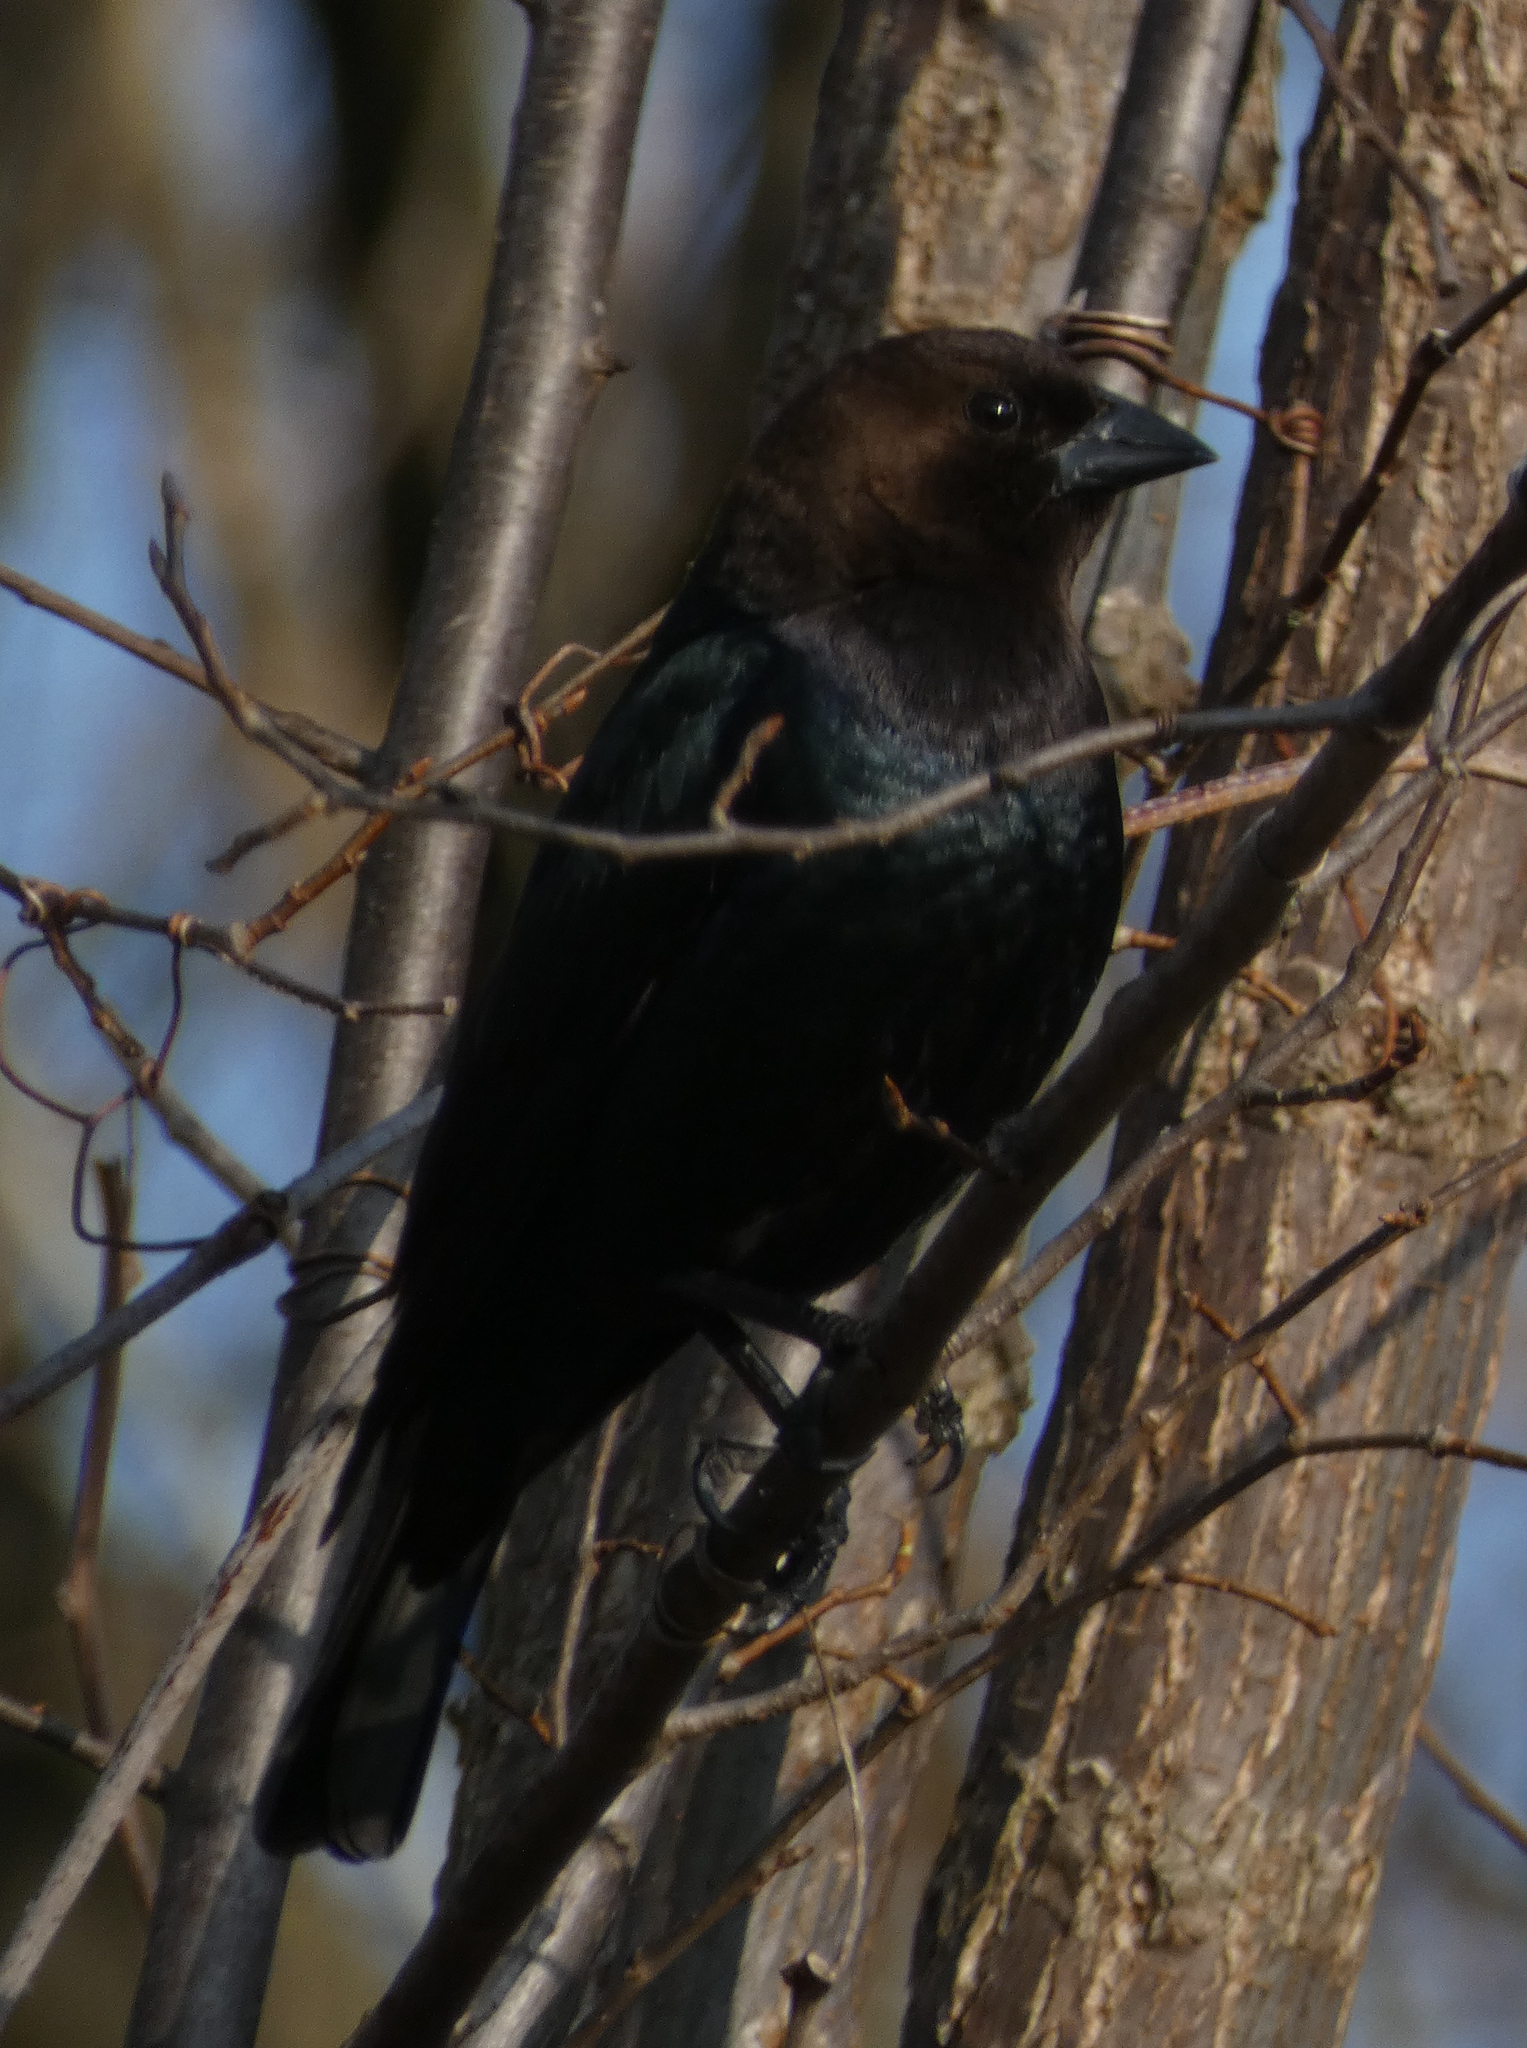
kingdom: Animalia
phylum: Chordata
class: Aves
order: Passeriformes
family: Icteridae
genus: Molothrus
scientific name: Molothrus ater
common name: Brown-headed cowbird
